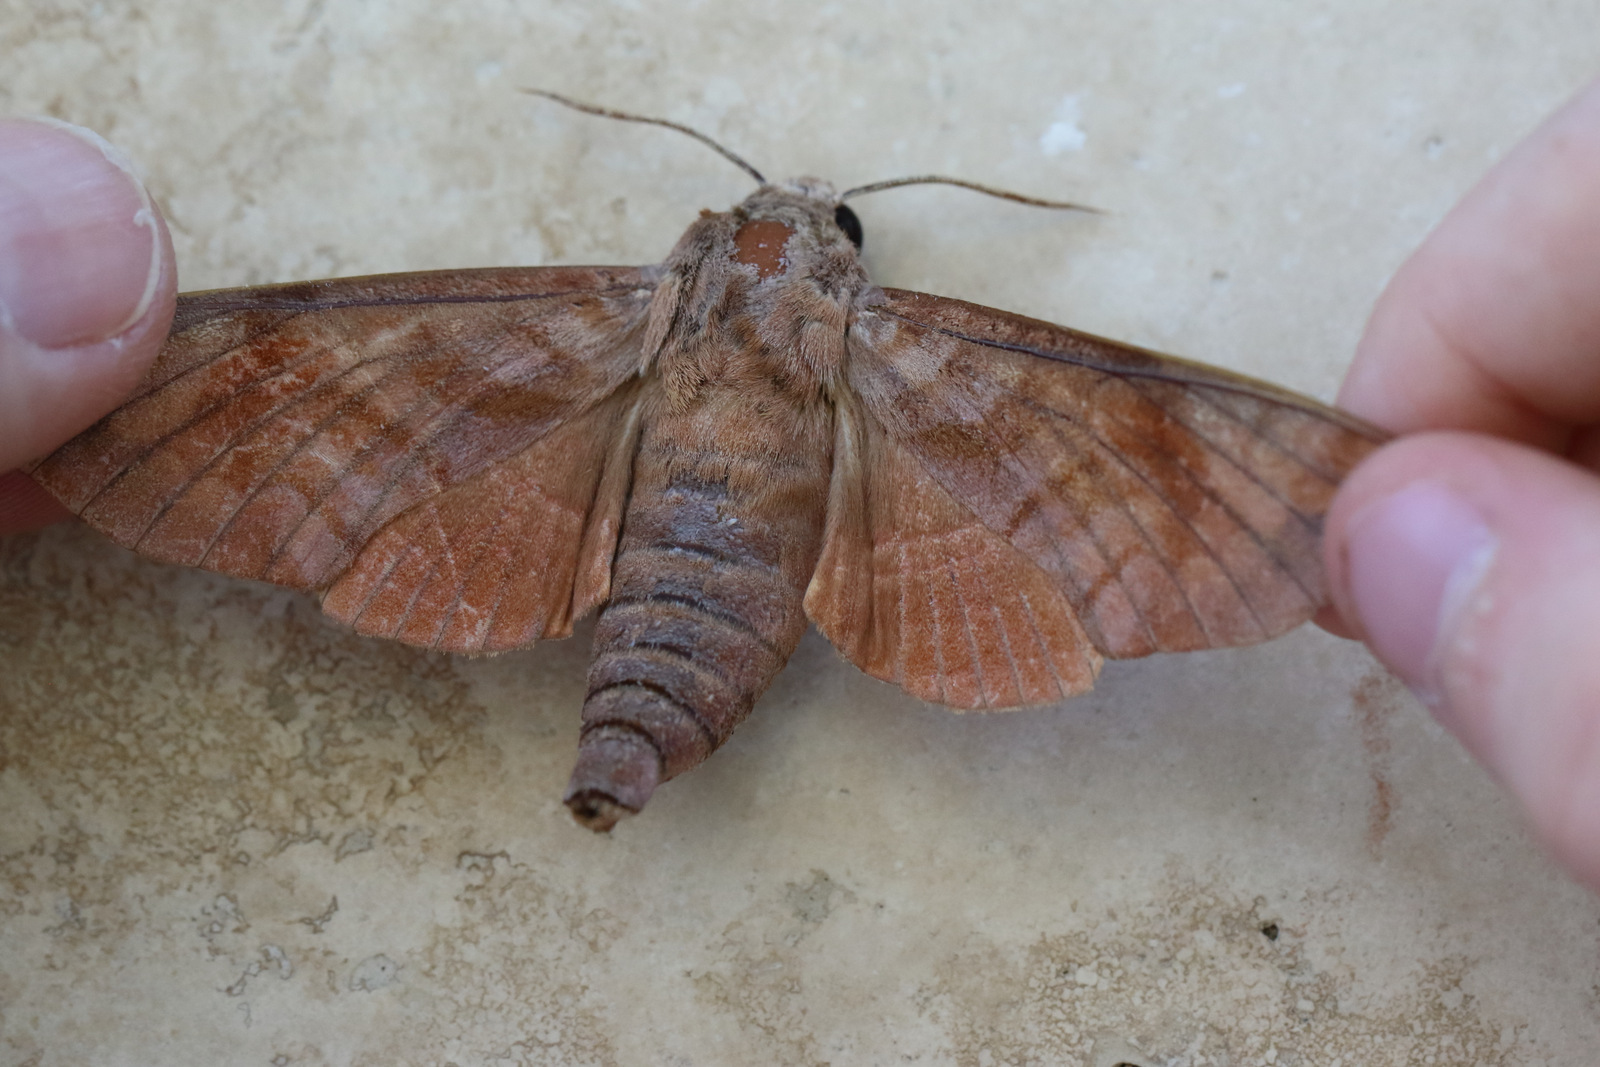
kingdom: Animalia
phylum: Arthropoda
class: Insecta
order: Lepidoptera
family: Sphingidae
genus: Acosmeryx
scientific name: Acosmeryx cinnamomea
